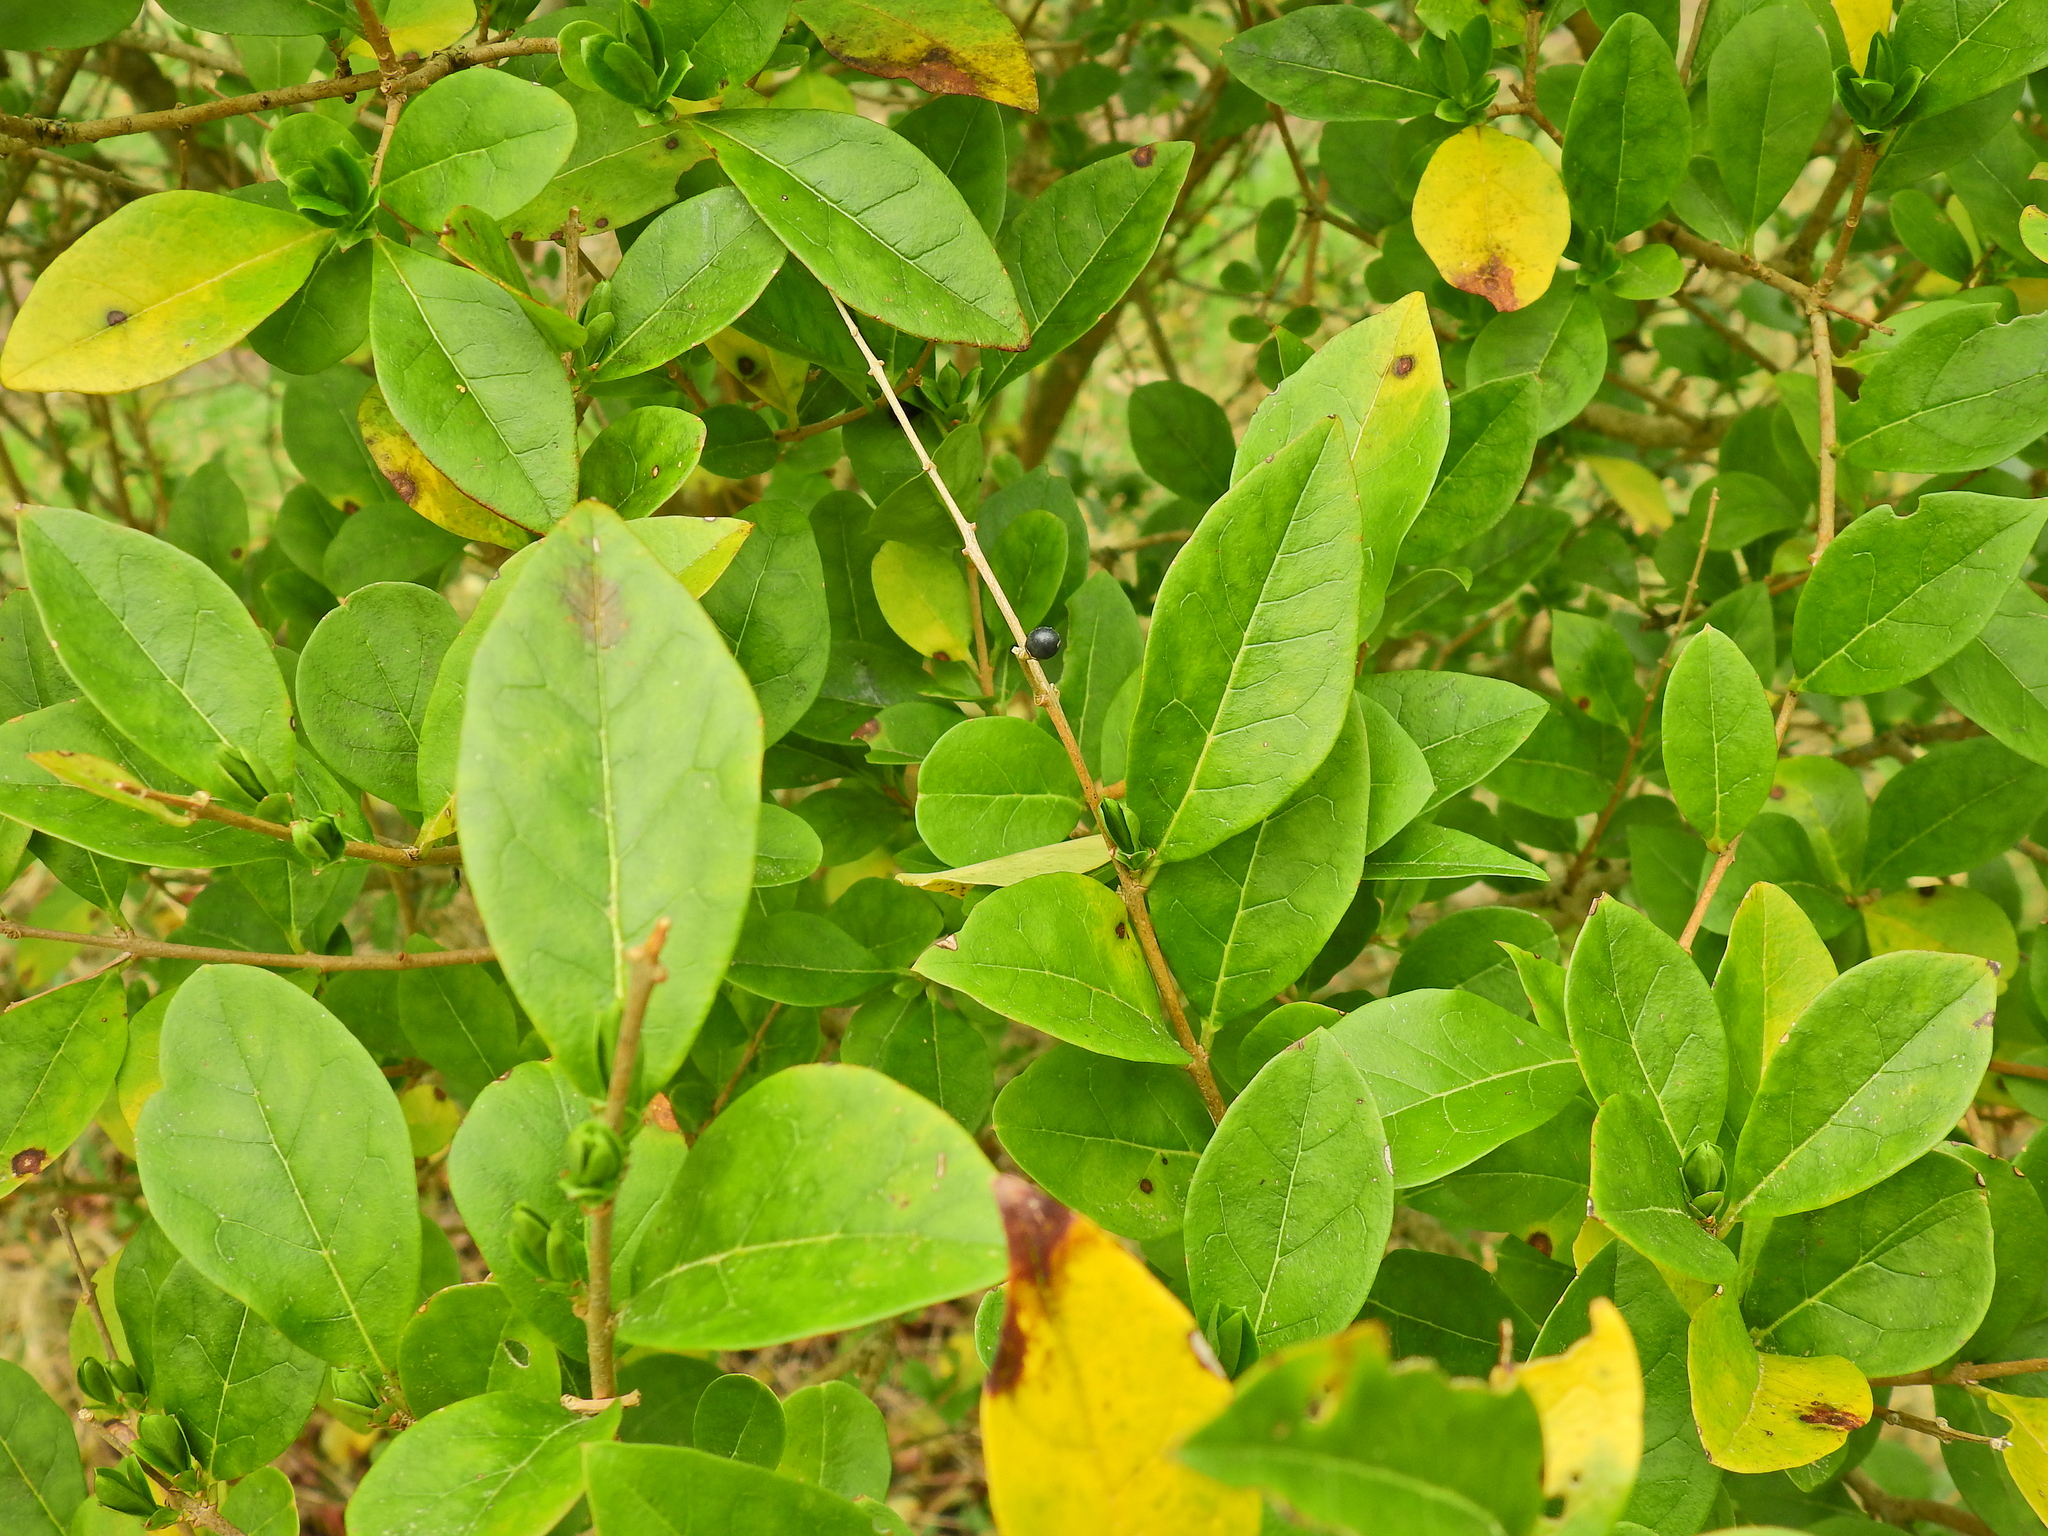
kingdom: Plantae
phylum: Tracheophyta
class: Magnoliopsida
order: Lamiales
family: Oleaceae
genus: Ligustrum
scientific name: Ligustrum ovalifolium
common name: California privet
